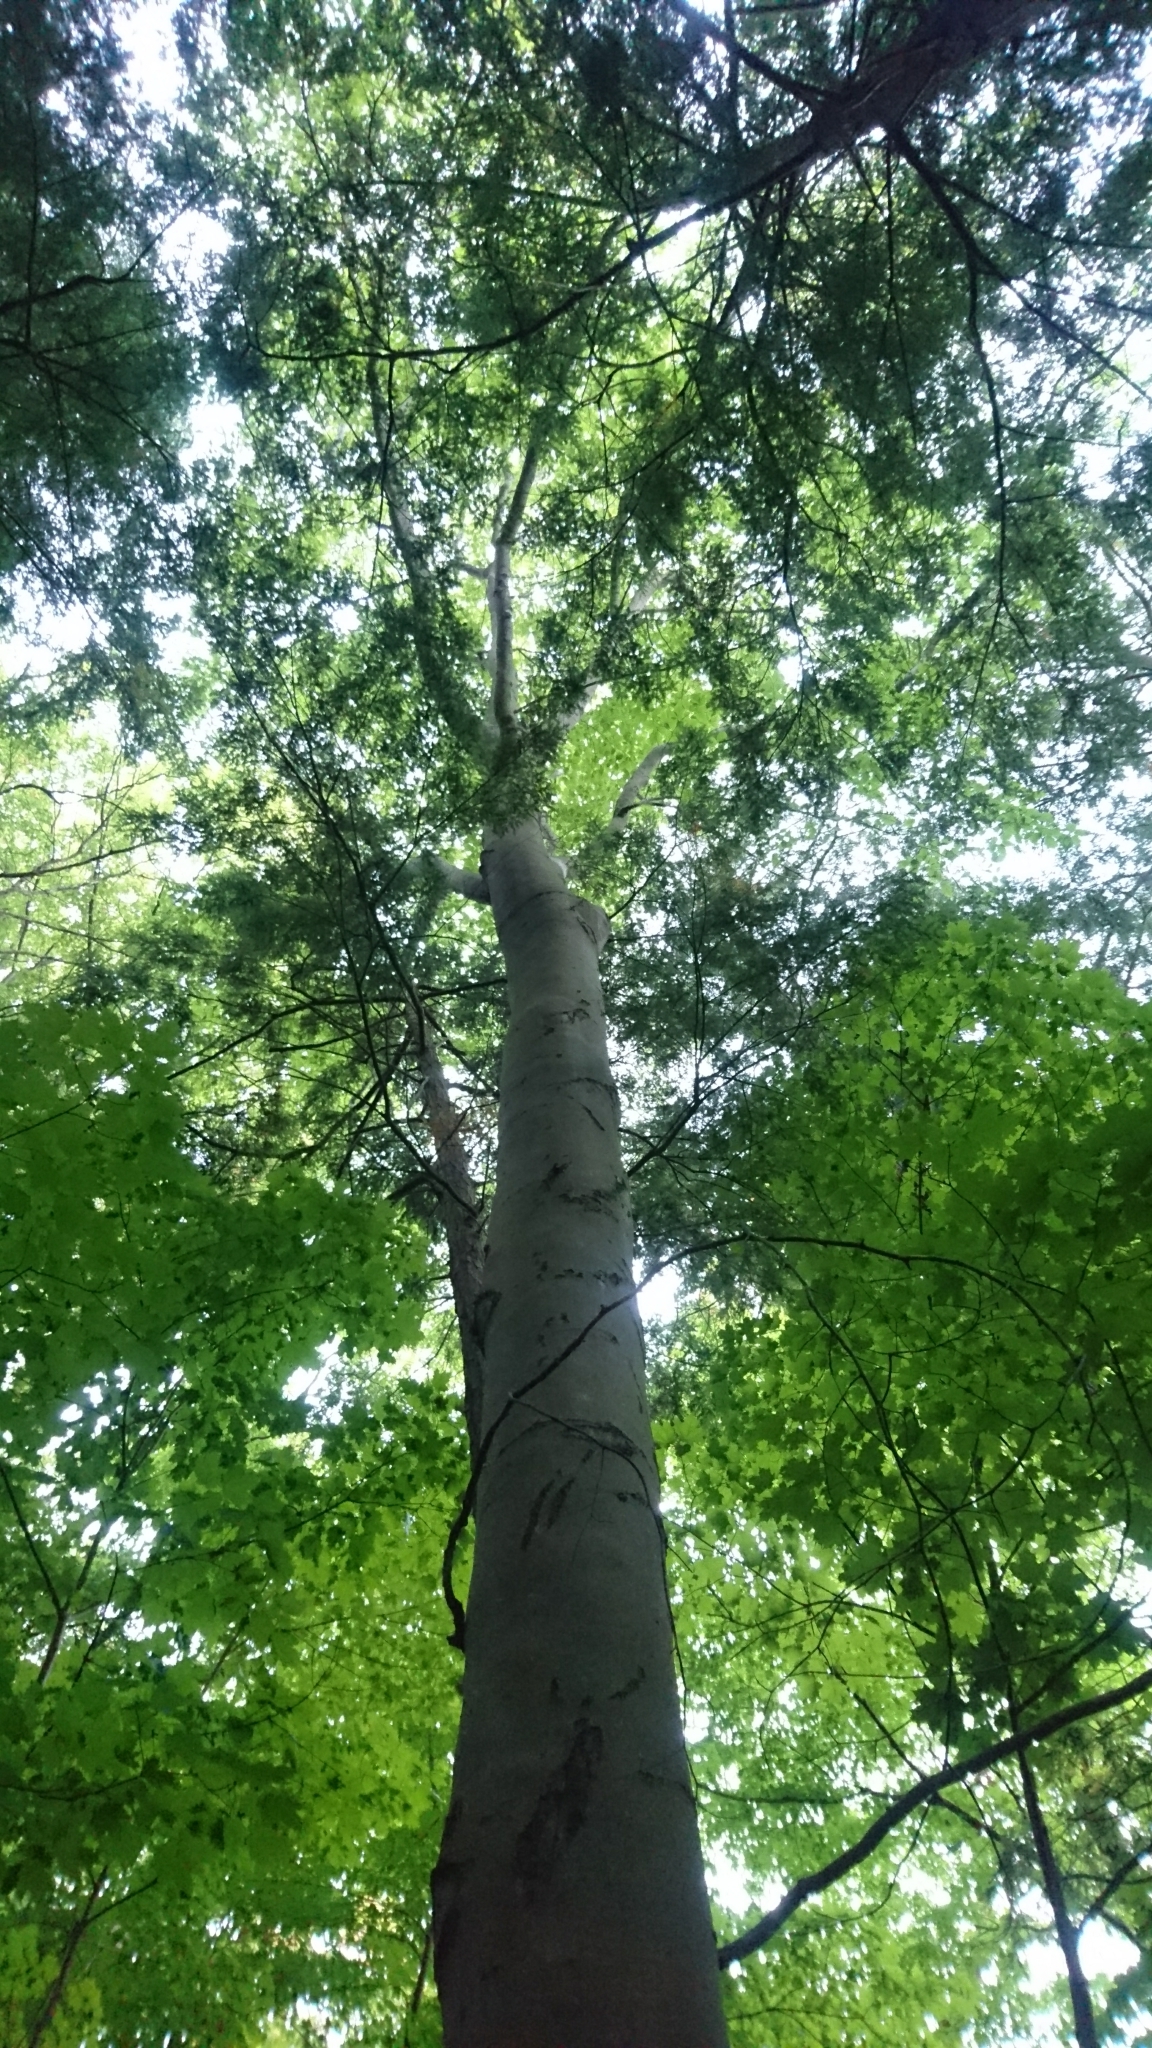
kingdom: Plantae
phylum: Tracheophyta
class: Magnoliopsida
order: Fagales
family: Fagaceae
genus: Fagus
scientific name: Fagus grandifolia
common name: American beech
